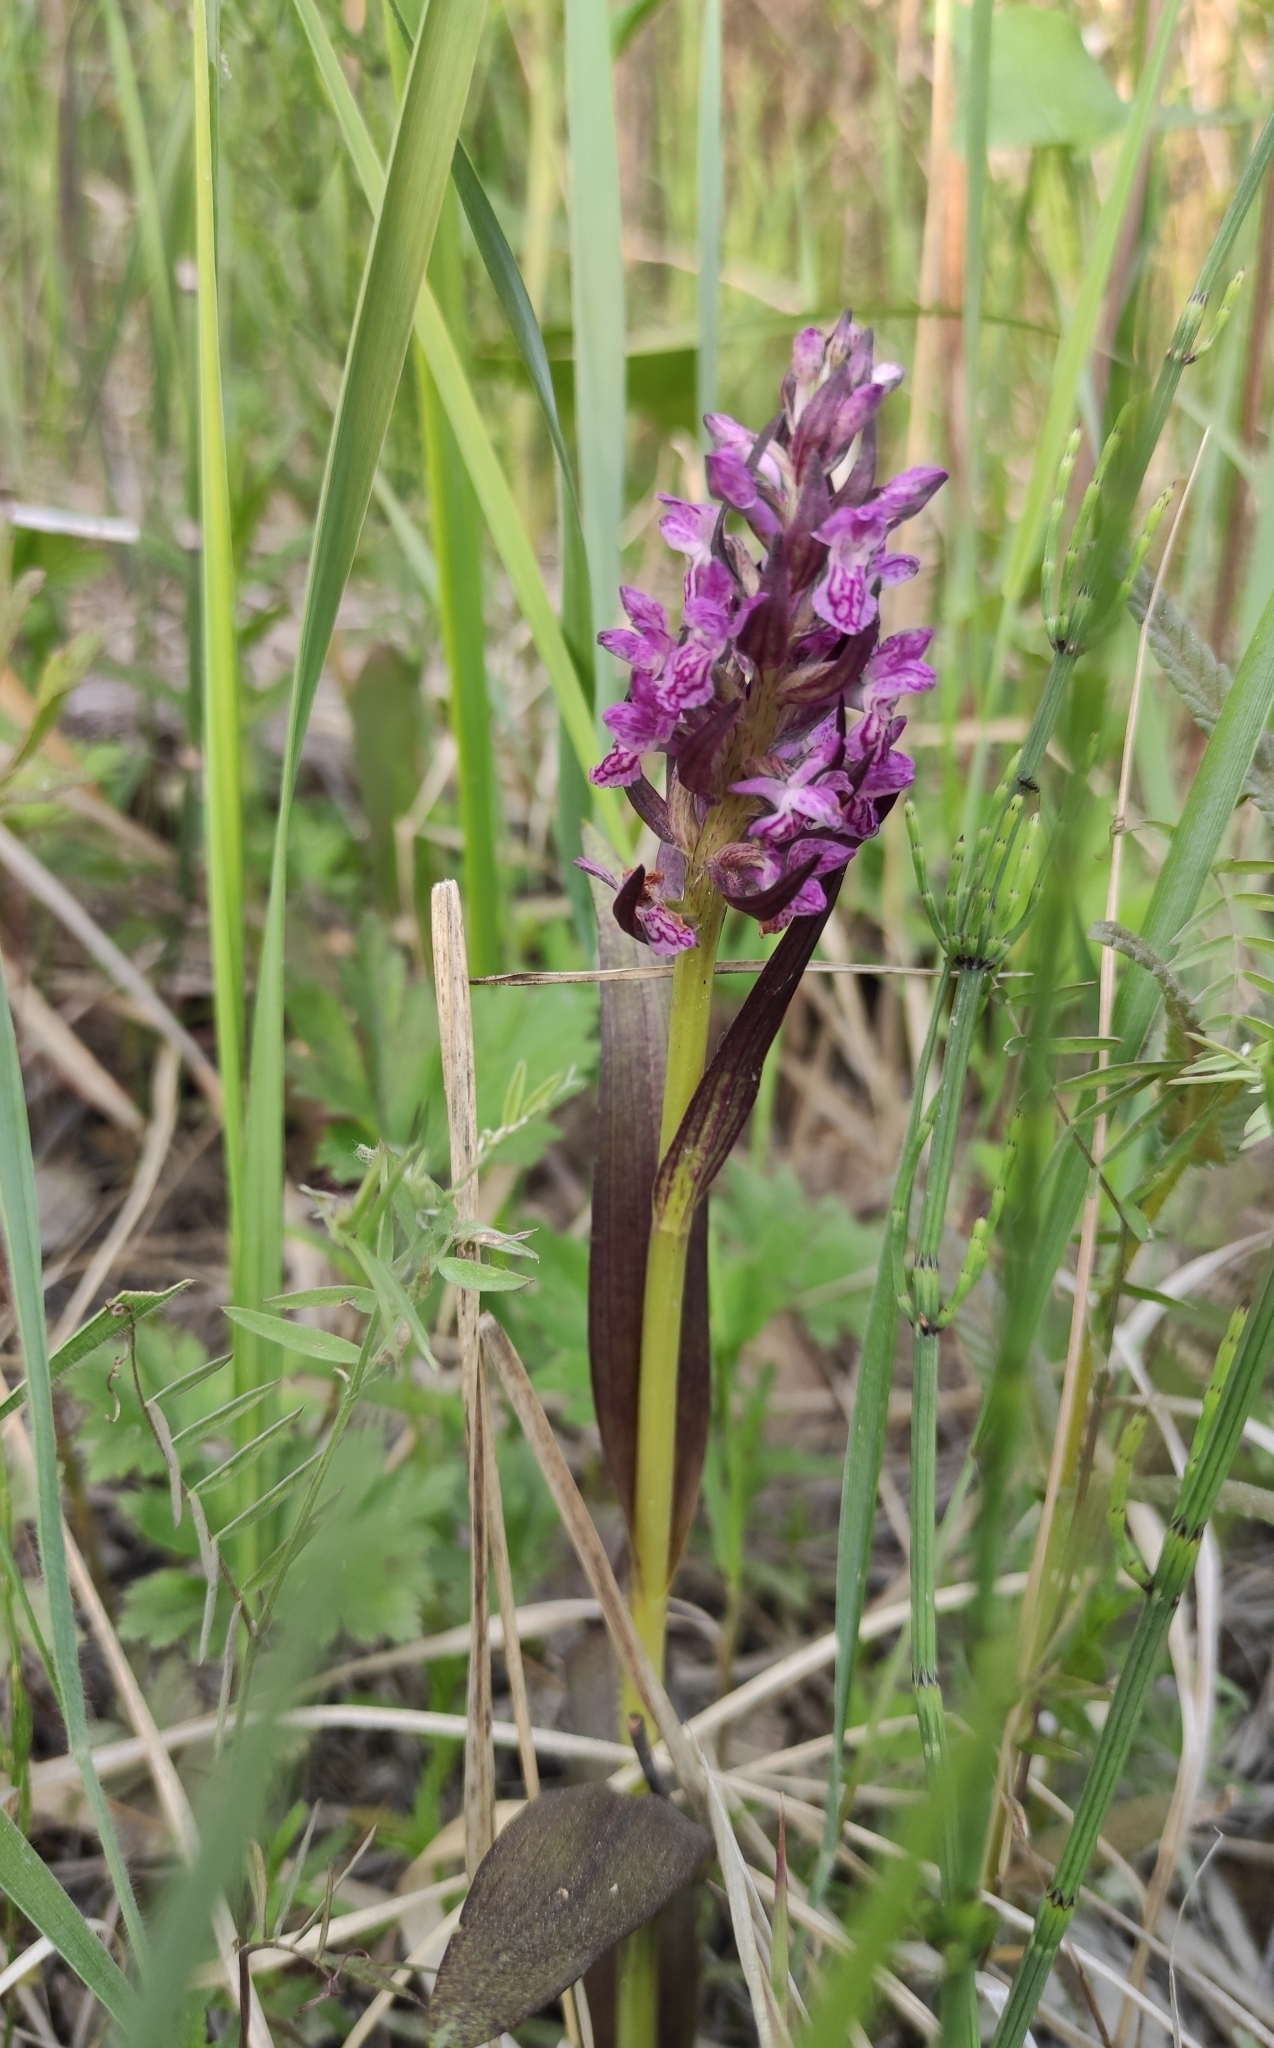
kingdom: Plantae
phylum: Tracheophyta
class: Liliopsida
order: Asparagales
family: Orchidaceae
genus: Dactylorhiza
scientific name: Dactylorhiza incarnata
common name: Early marsh-orchid
